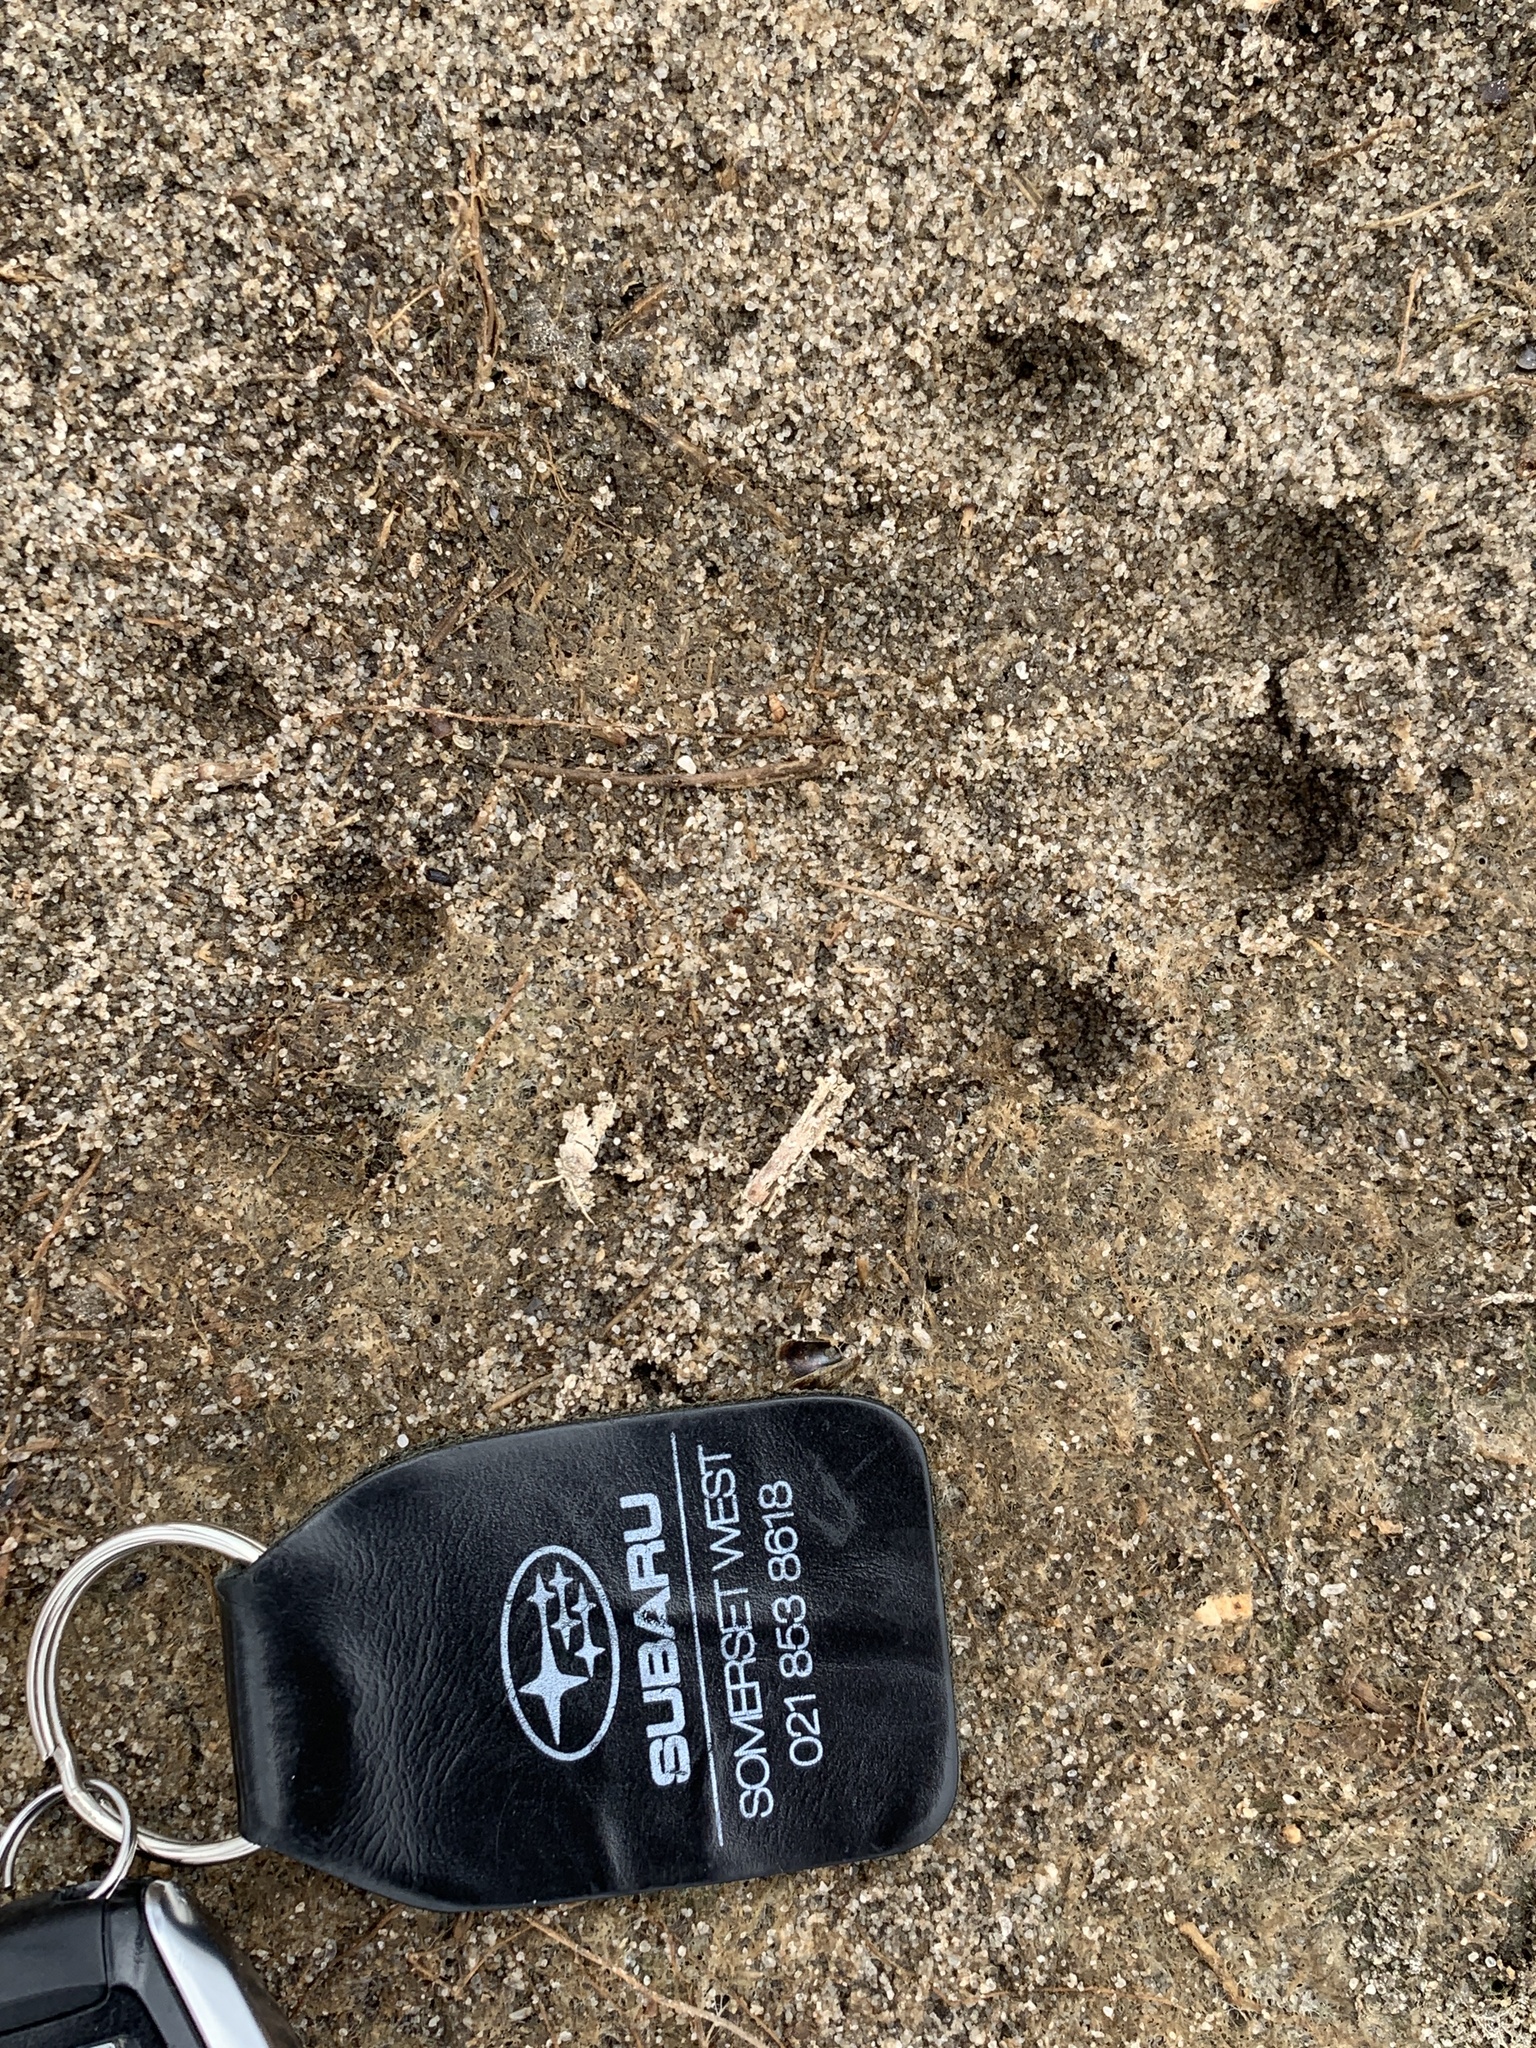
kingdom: Animalia
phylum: Chordata
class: Mammalia
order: Carnivora
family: Mustelidae
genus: Aonyx
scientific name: Aonyx capensis
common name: African clawless otter
